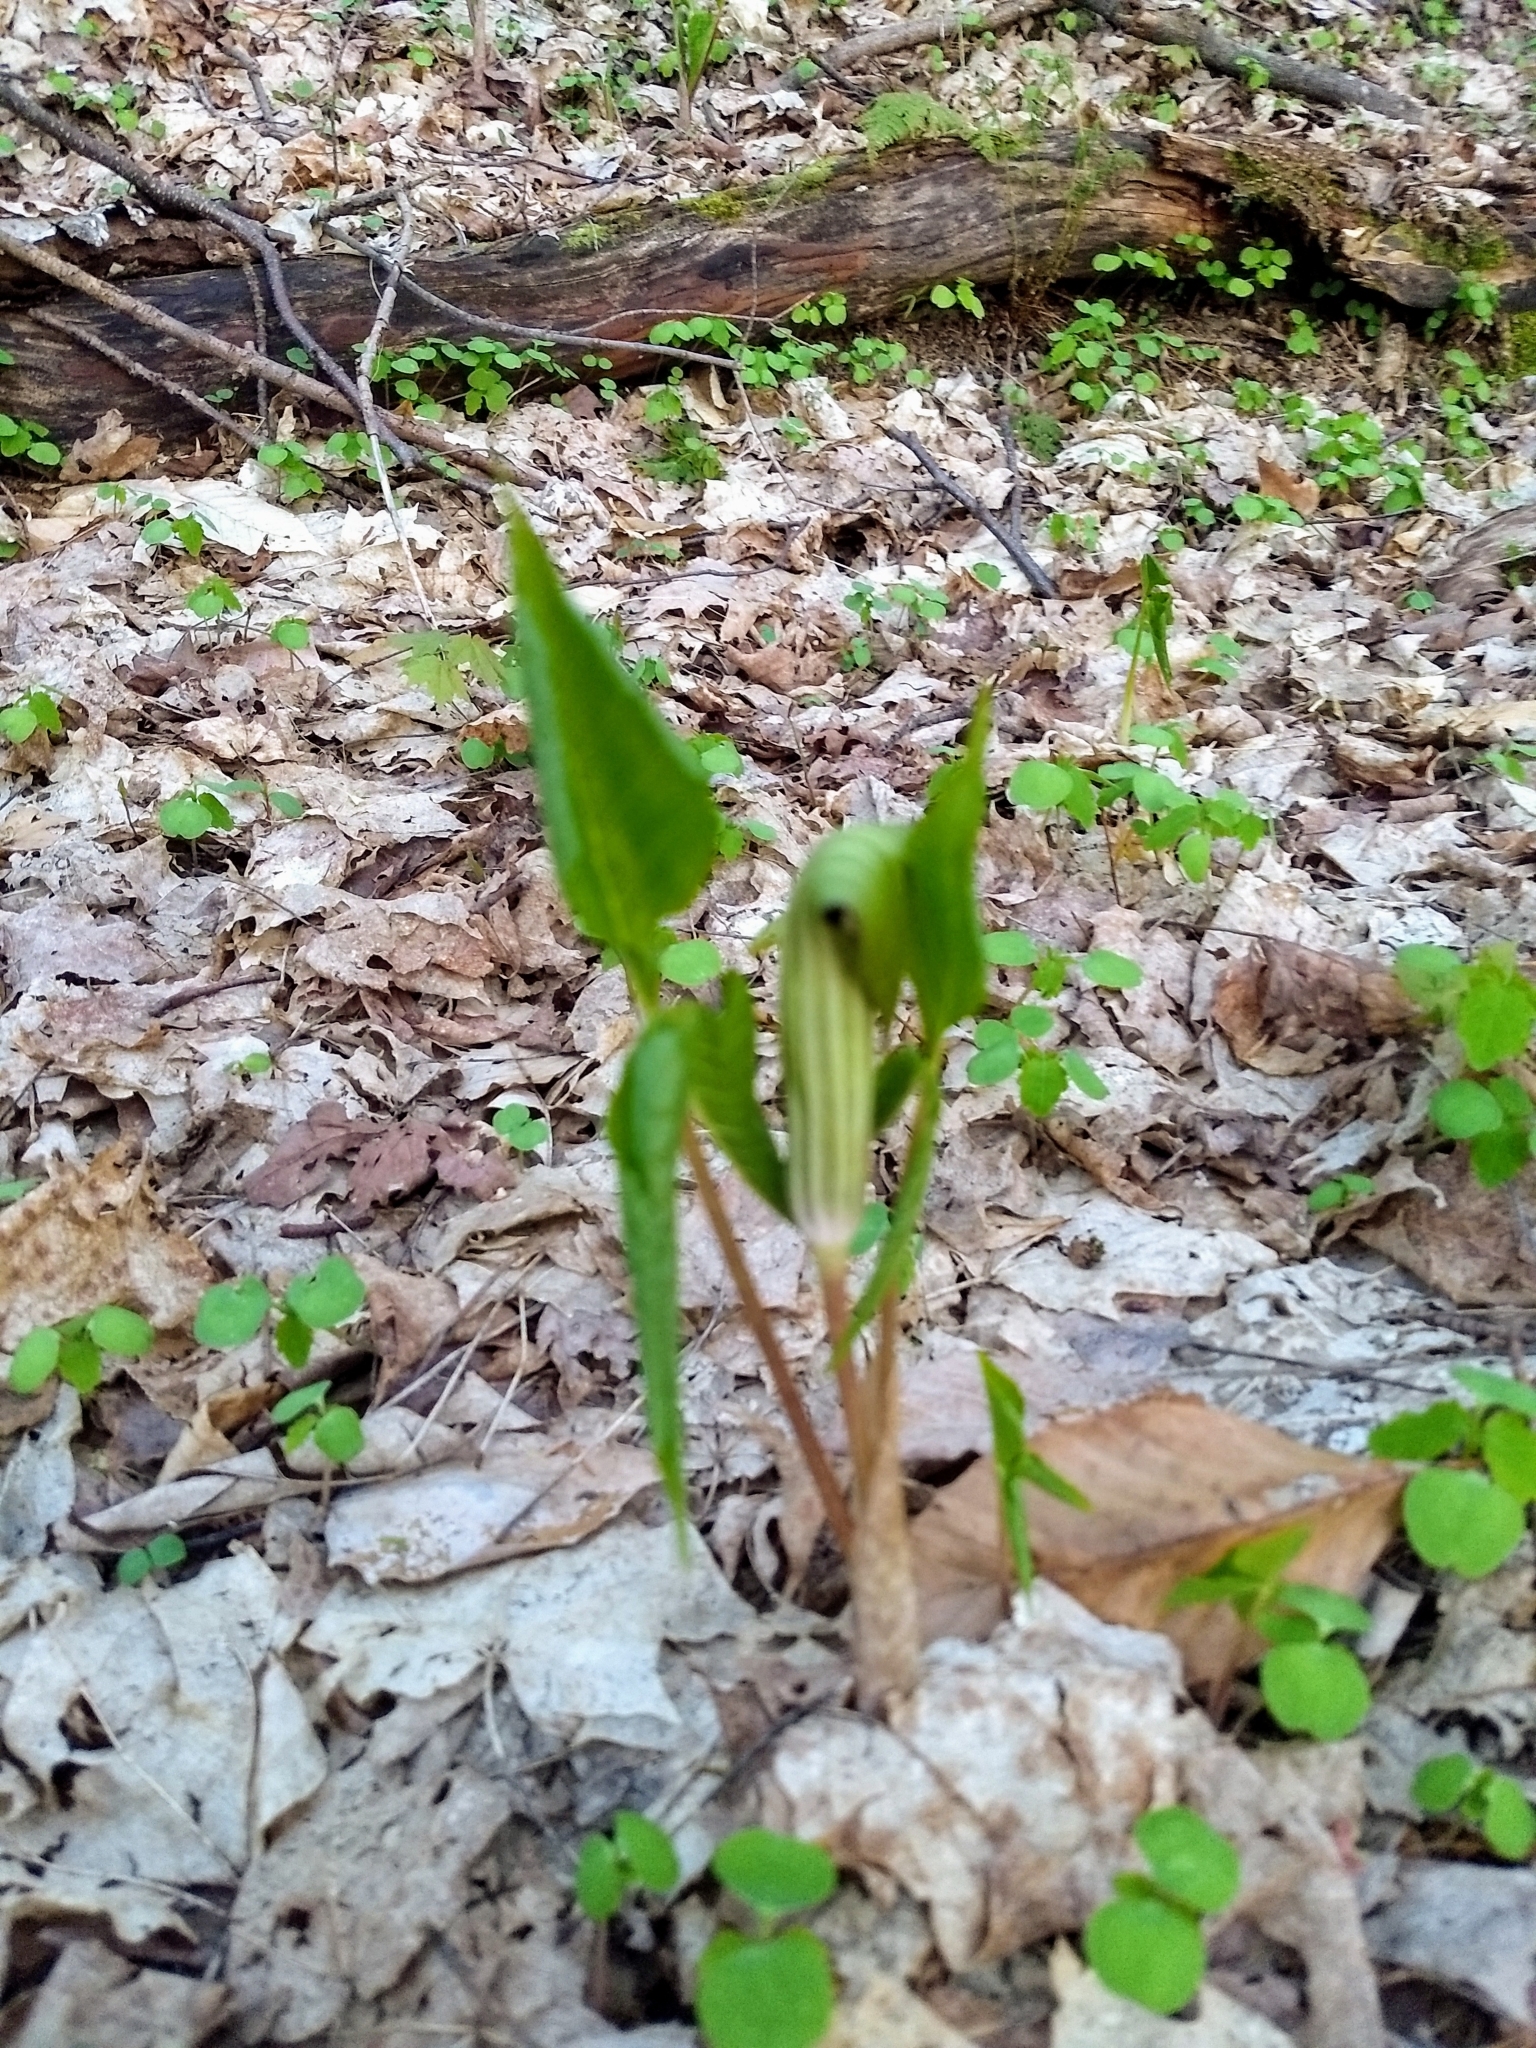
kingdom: Plantae
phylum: Tracheophyta
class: Liliopsida
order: Alismatales
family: Araceae
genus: Arisaema
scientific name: Arisaema triphyllum
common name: Jack-in-the-pulpit
